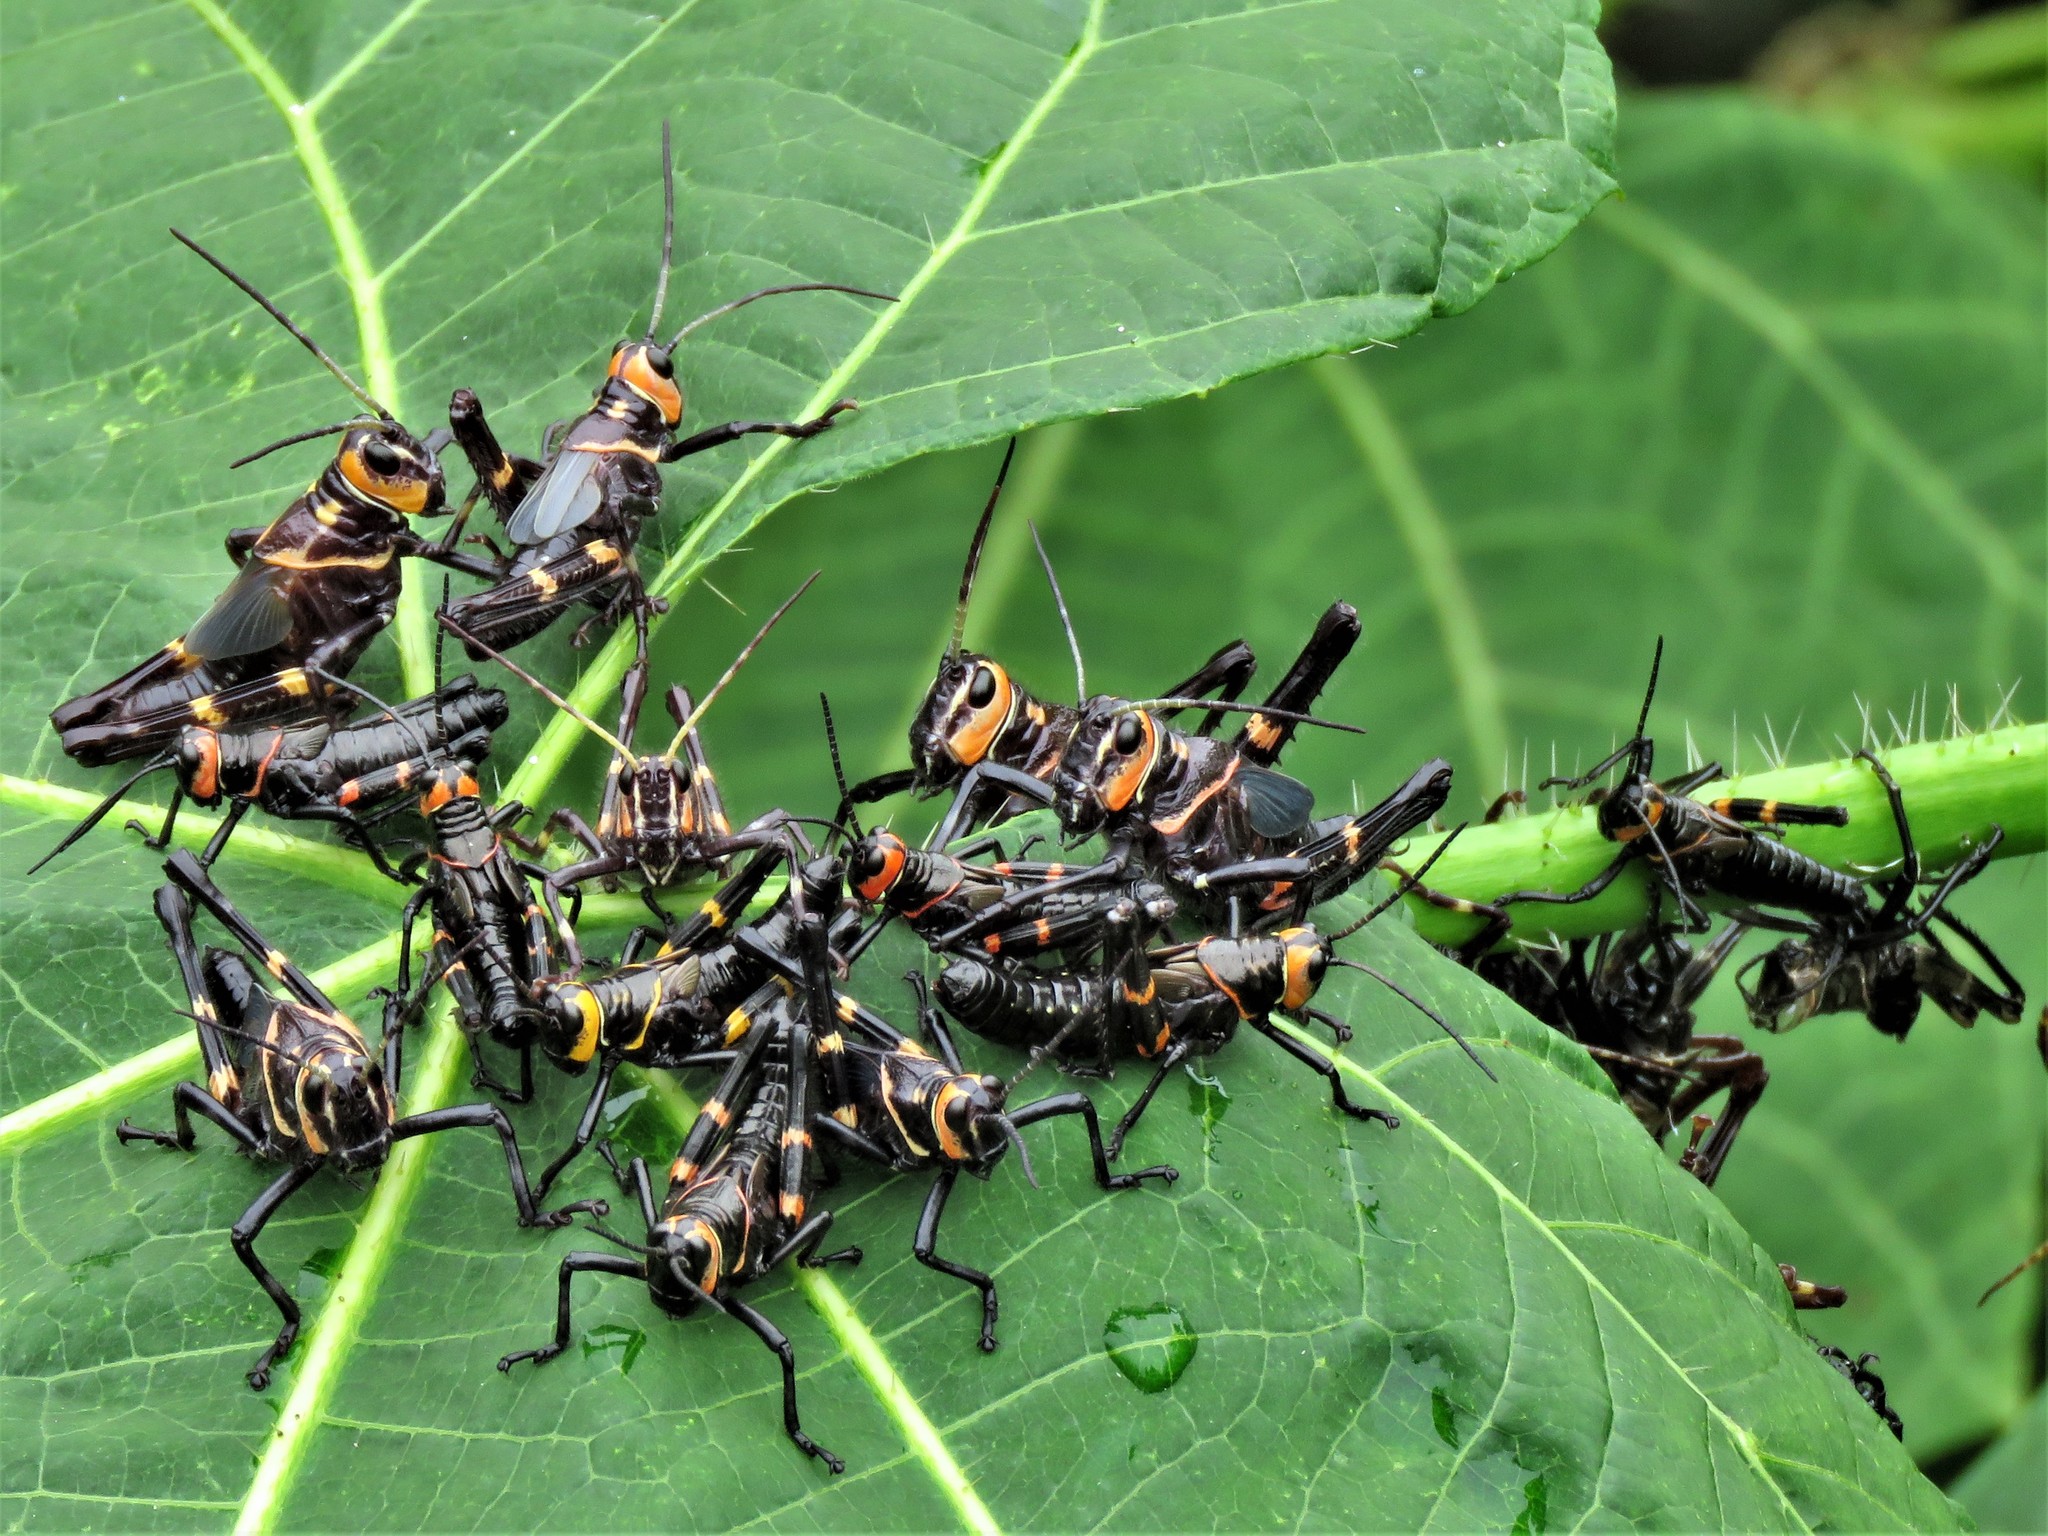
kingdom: Animalia
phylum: Arthropoda
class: Insecta
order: Orthoptera
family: Romaleidae
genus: Chromacris
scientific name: Chromacris colorata
